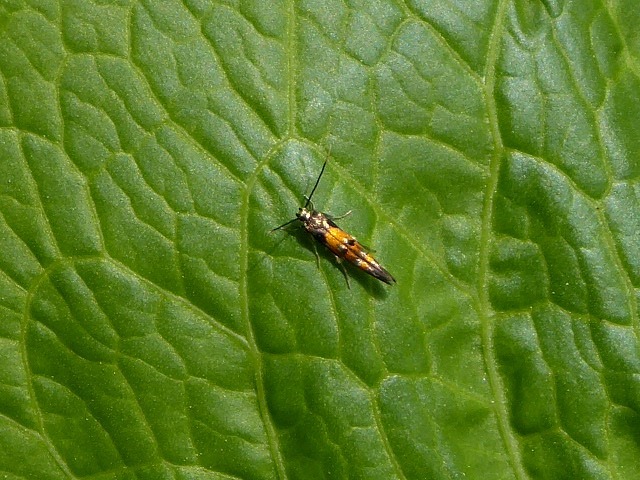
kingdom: Animalia
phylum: Arthropoda
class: Insecta
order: Lepidoptera
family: Momphidae
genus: Mompha
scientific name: Mompha terminella
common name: Enchanters cosmet
